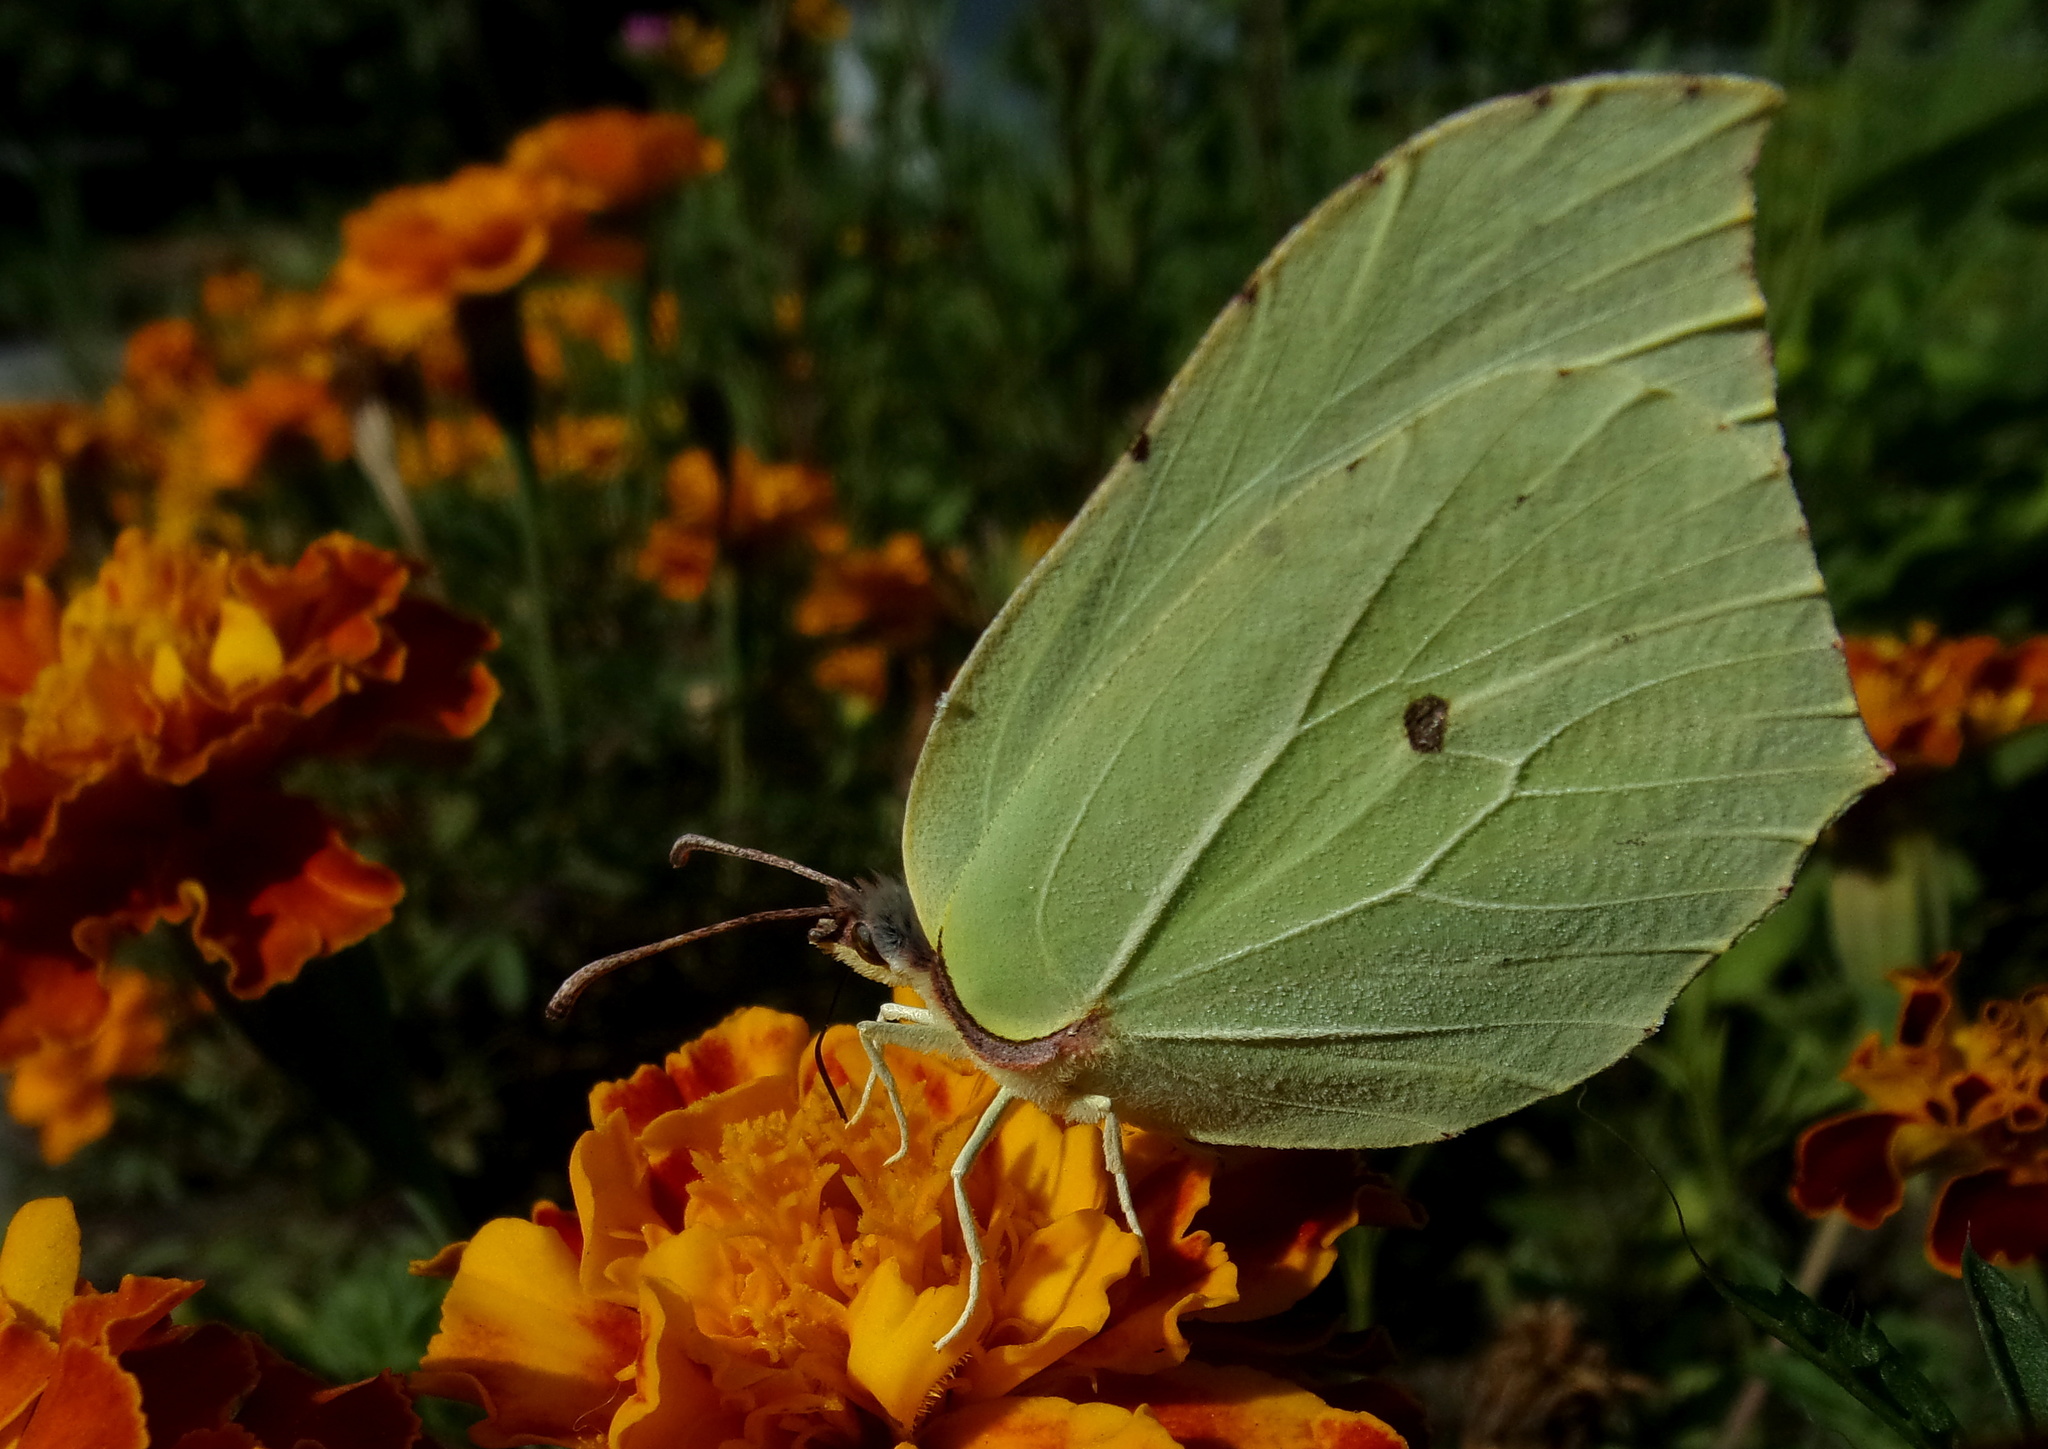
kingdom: Animalia
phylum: Arthropoda
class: Insecta
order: Lepidoptera
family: Pieridae
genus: Gonepteryx
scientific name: Gonepteryx rhamni
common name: Brimstone
